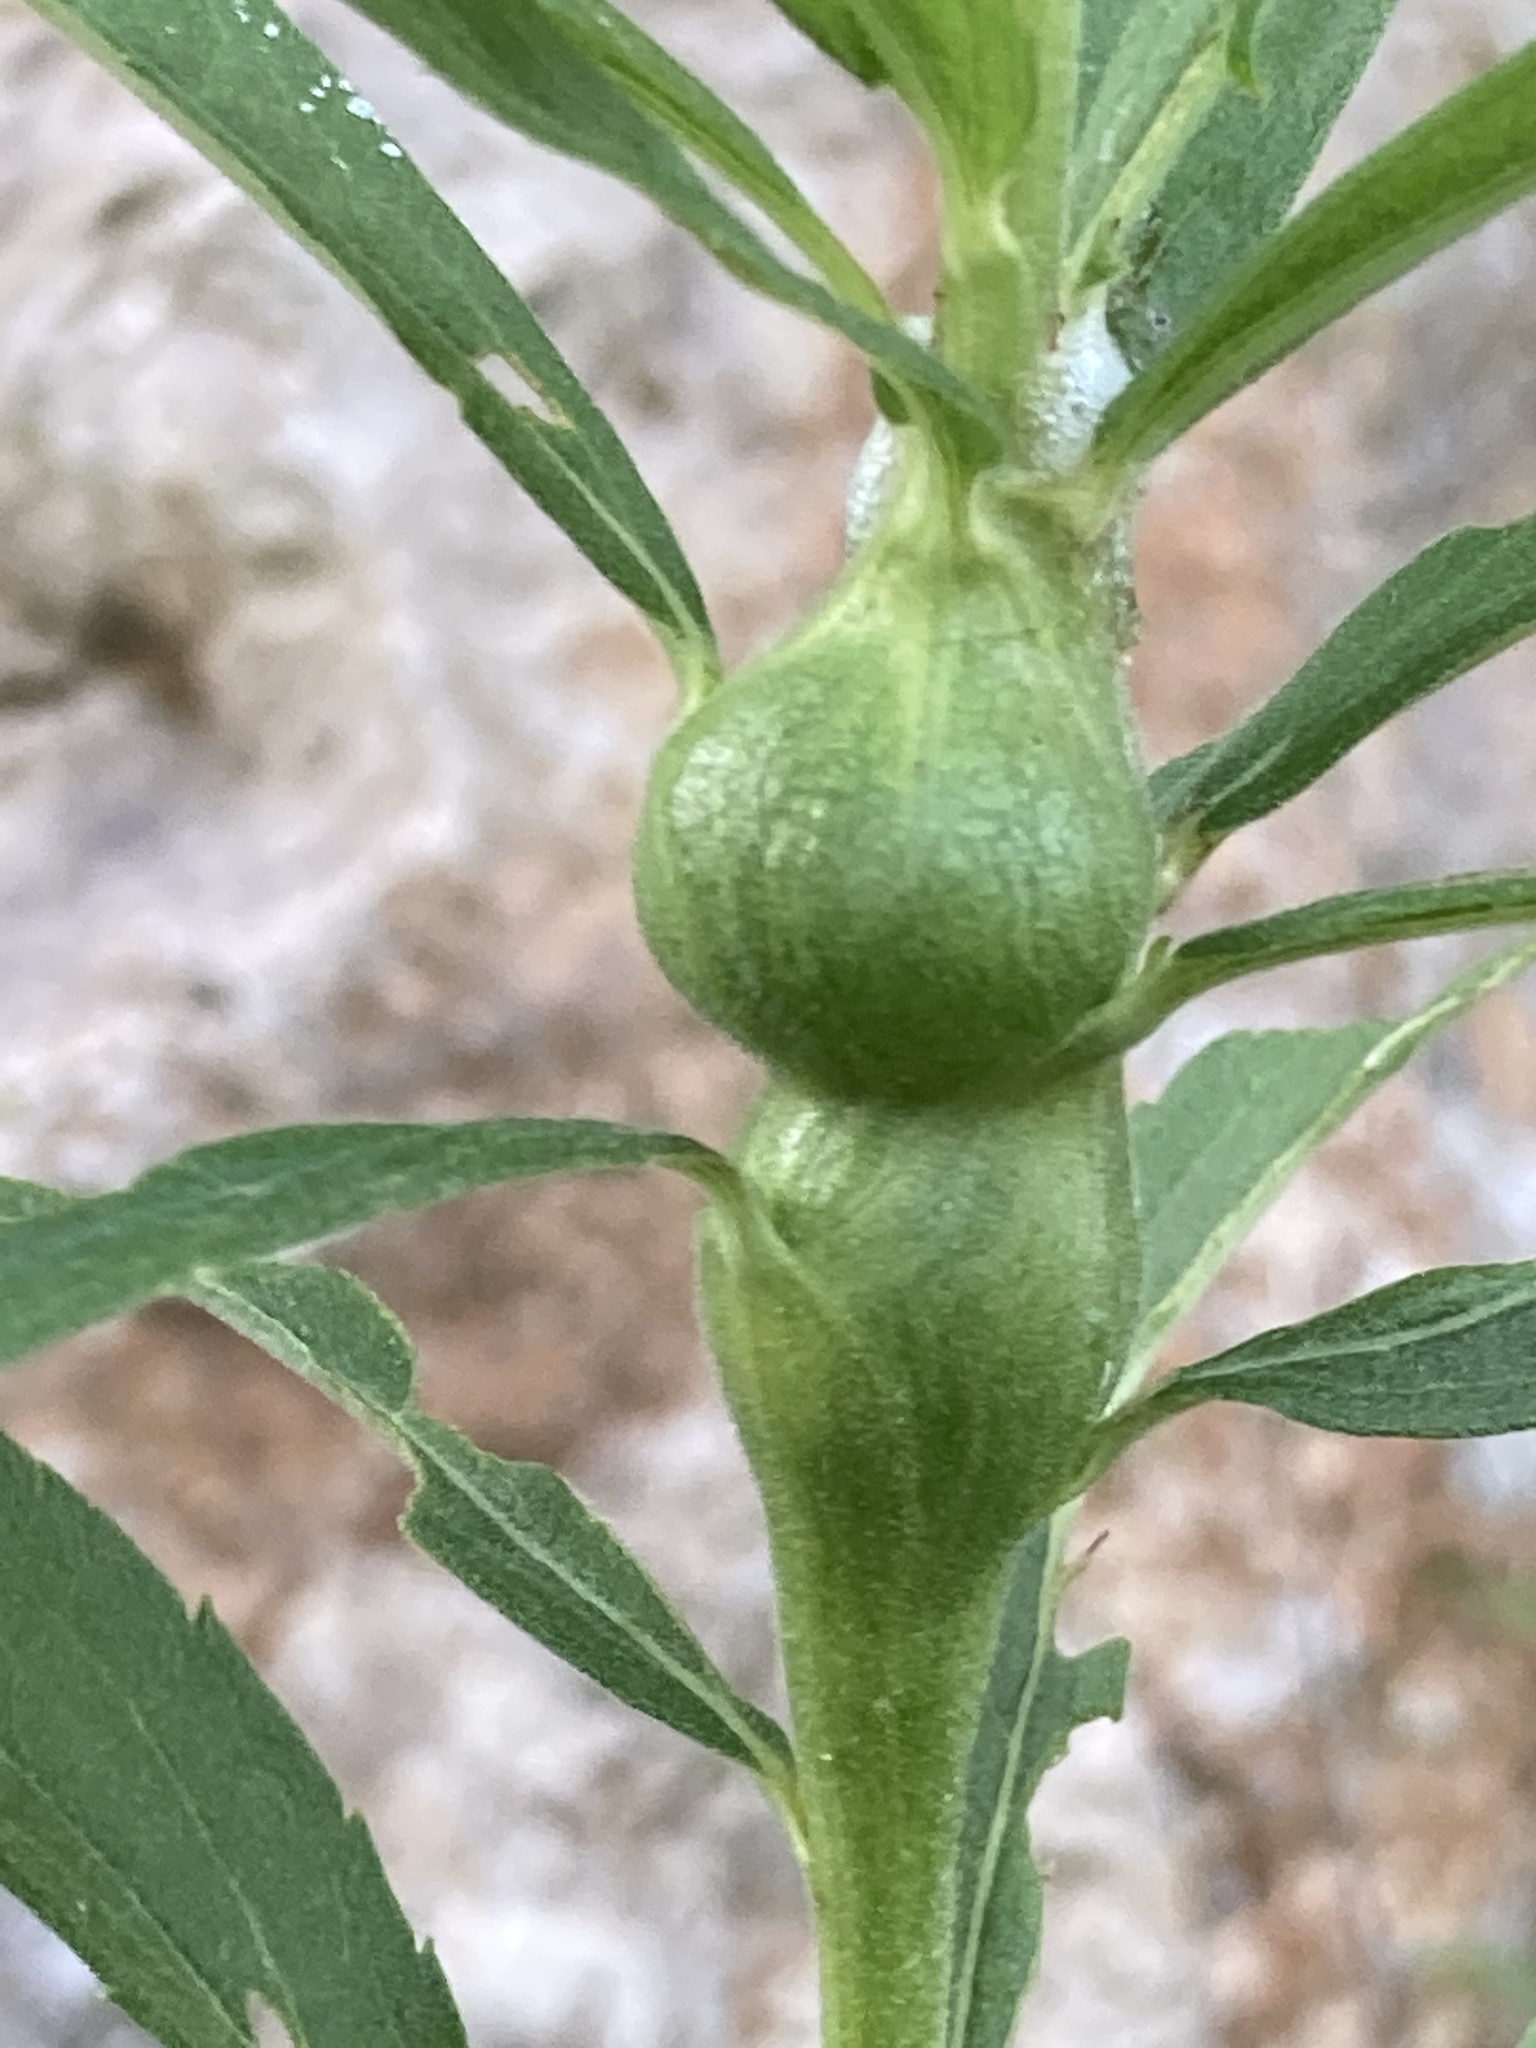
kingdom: Animalia
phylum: Arthropoda
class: Insecta
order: Diptera
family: Tephritidae
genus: Eurosta
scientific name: Eurosta solidaginis
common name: Goldenrod gall fly
